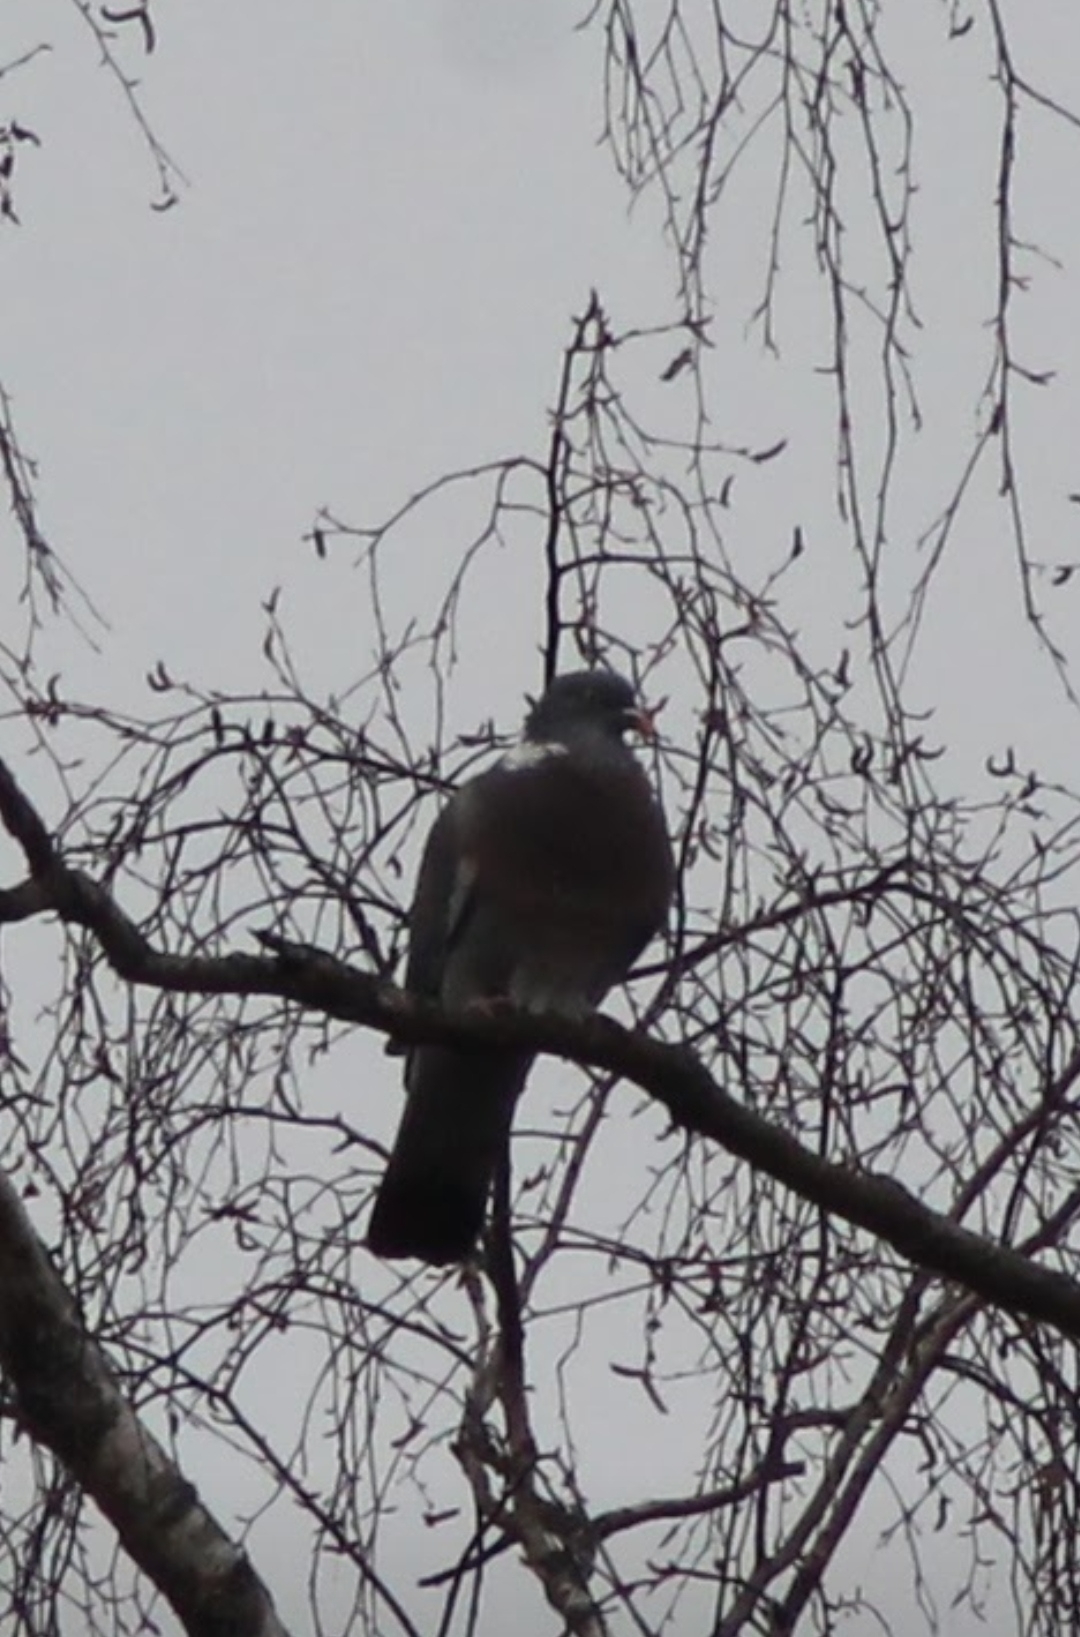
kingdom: Animalia
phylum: Chordata
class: Aves
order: Columbiformes
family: Columbidae
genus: Columba
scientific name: Columba palumbus
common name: Common wood pigeon
